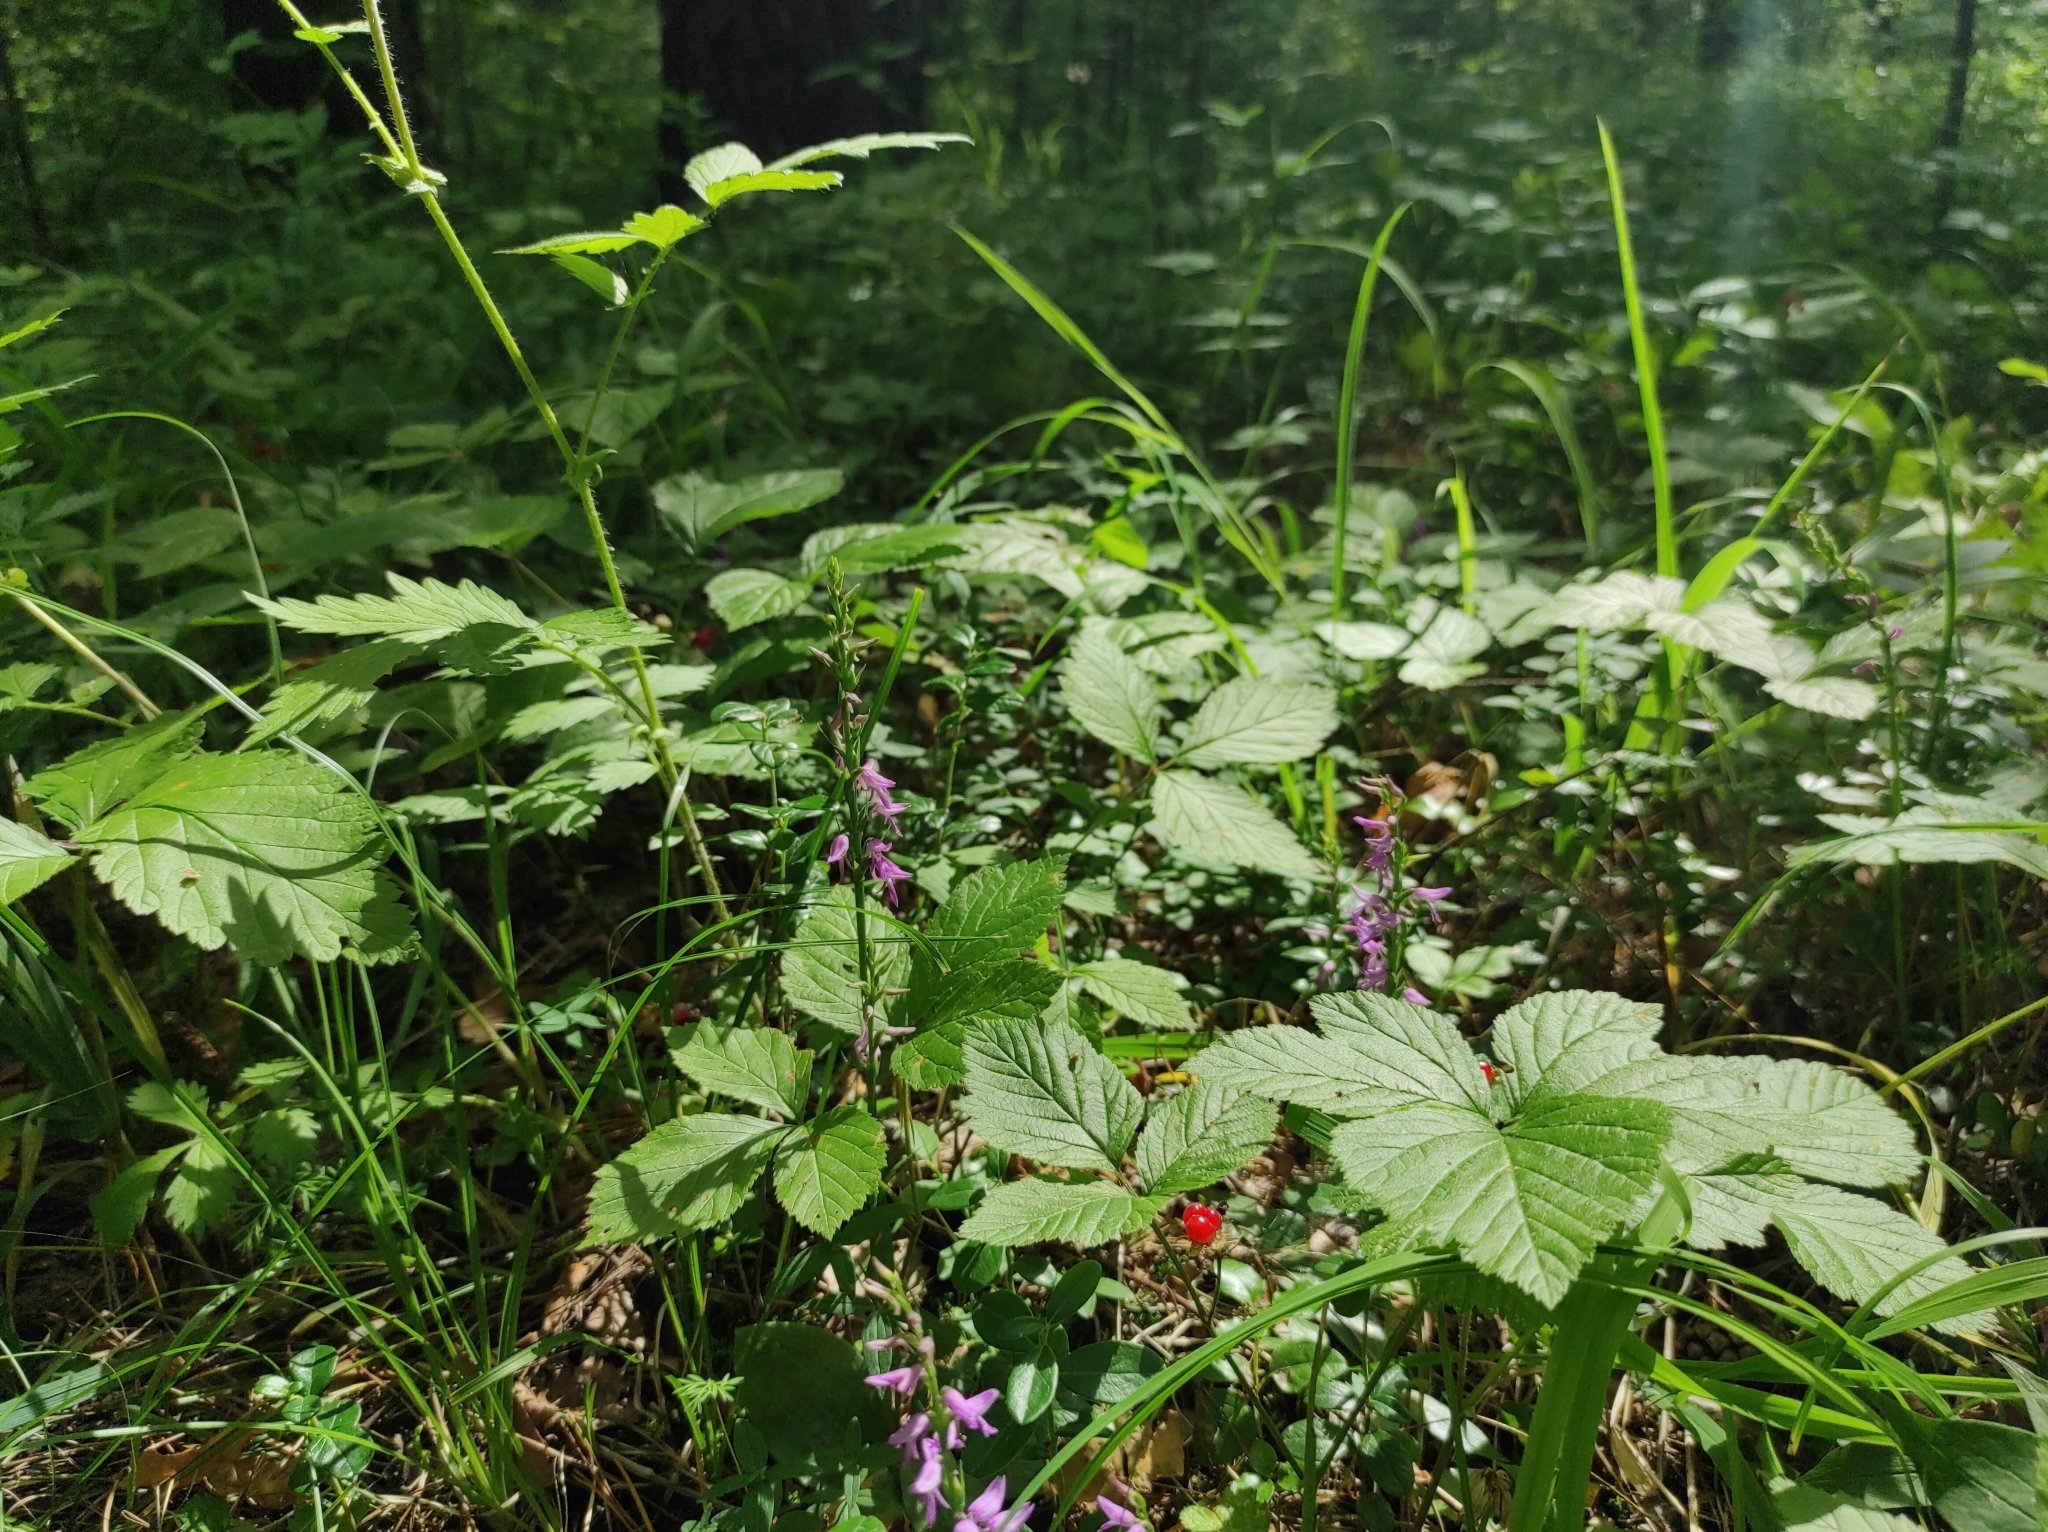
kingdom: Plantae
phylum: Tracheophyta
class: Magnoliopsida
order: Rosales
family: Rosaceae
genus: Rubus
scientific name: Rubus saxatilis
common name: Stone bramble
